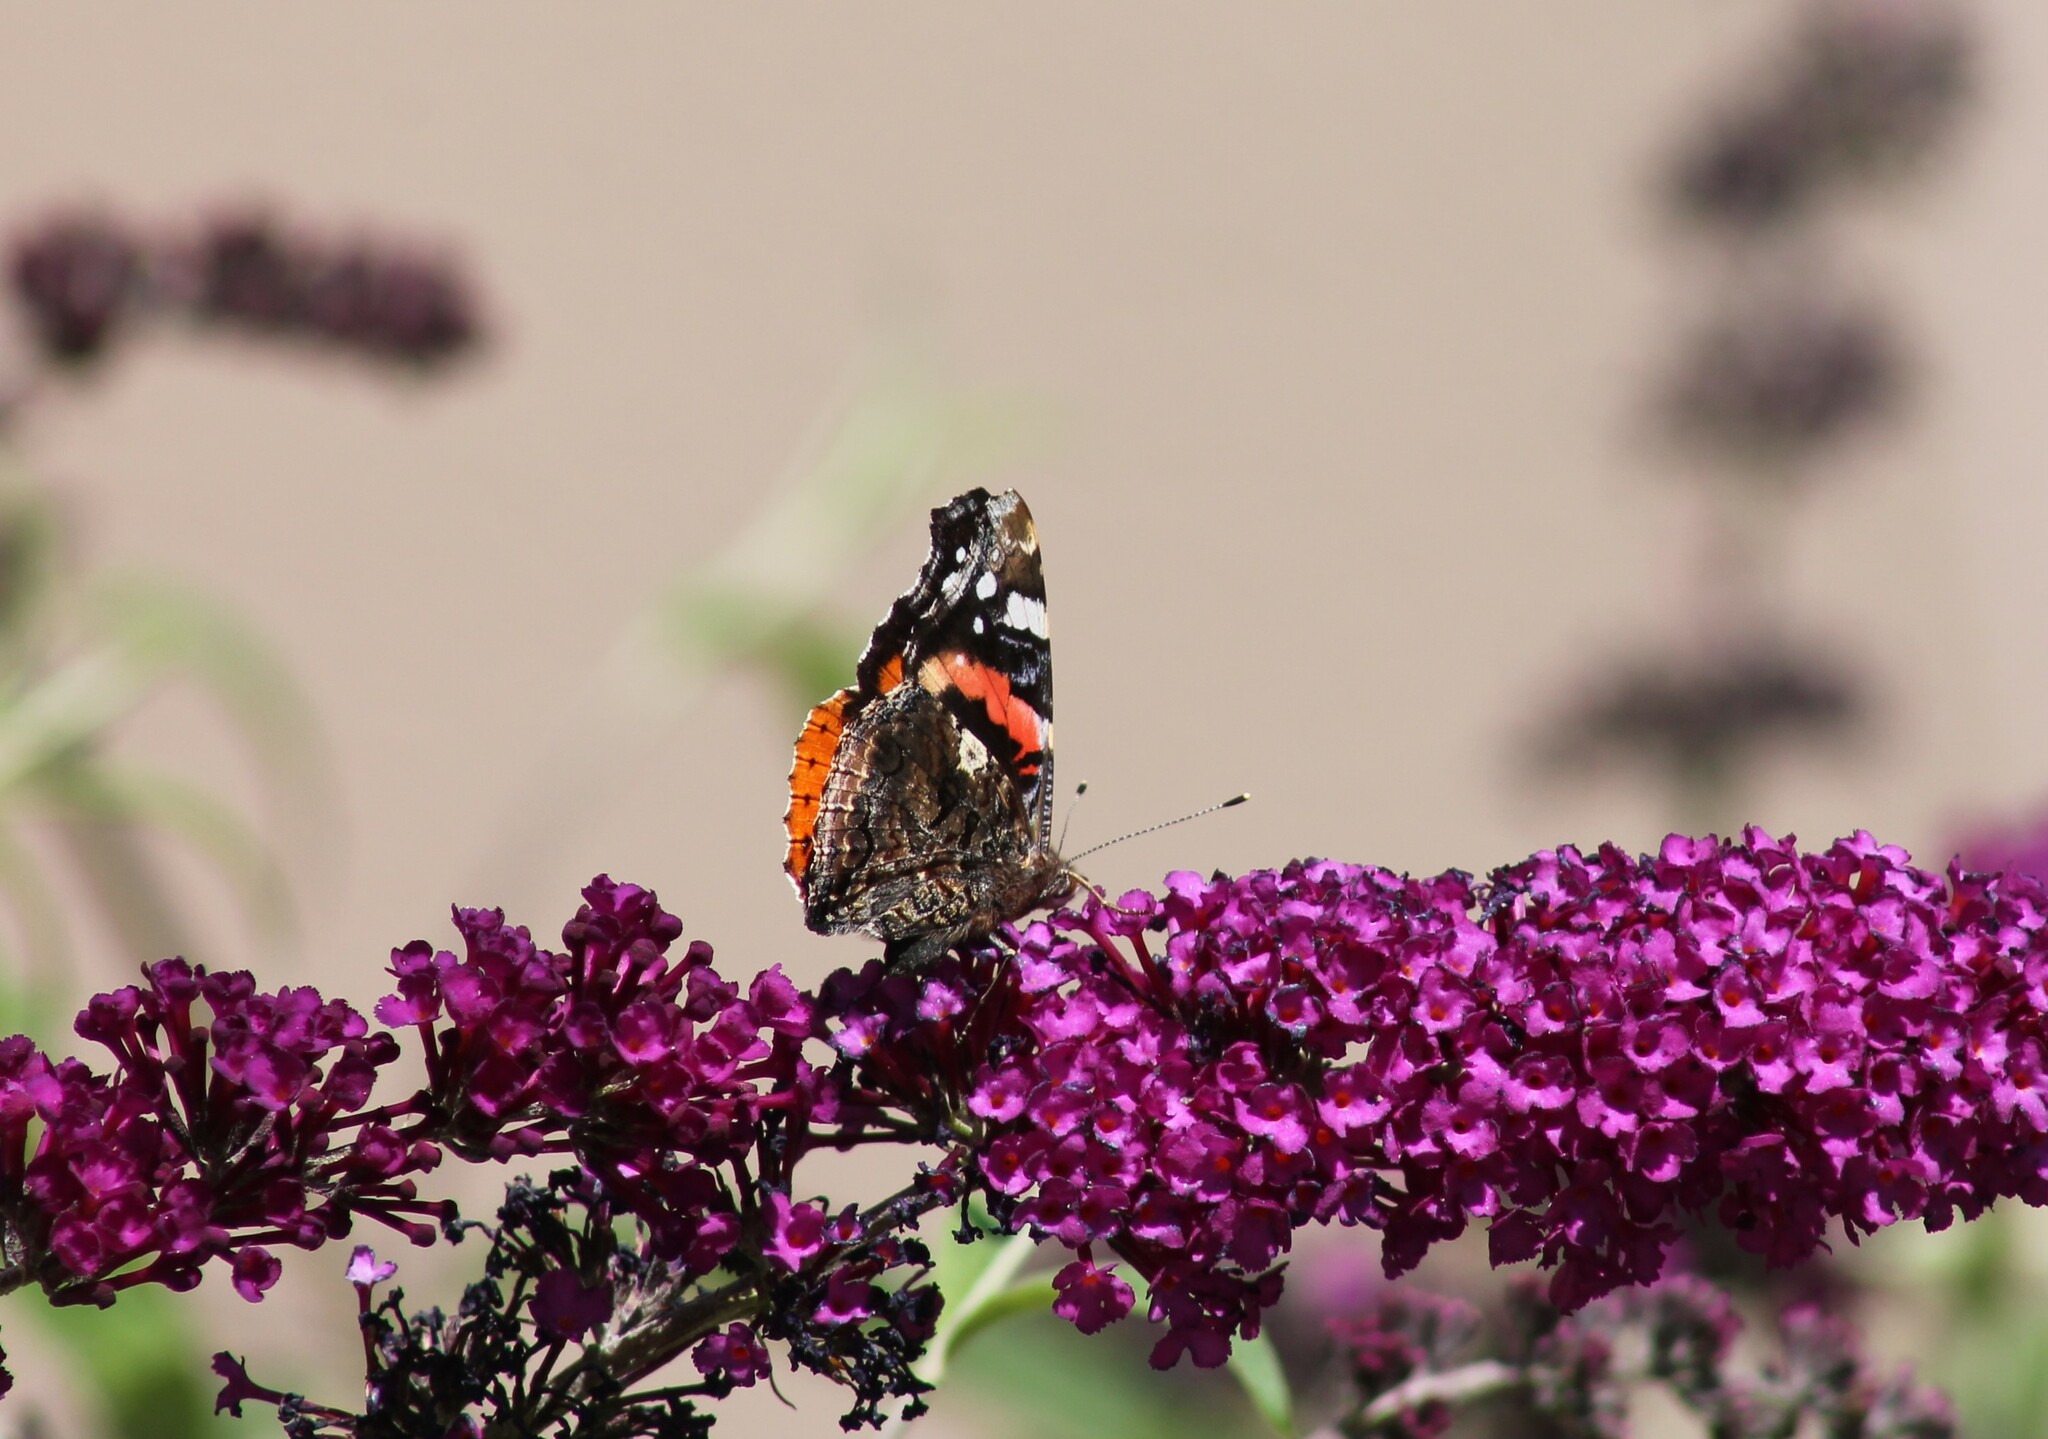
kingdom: Animalia
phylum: Arthropoda
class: Insecta
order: Lepidoptera
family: Nymphalidae
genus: Vanessa
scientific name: Vanessa atalanta
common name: Red admiral
